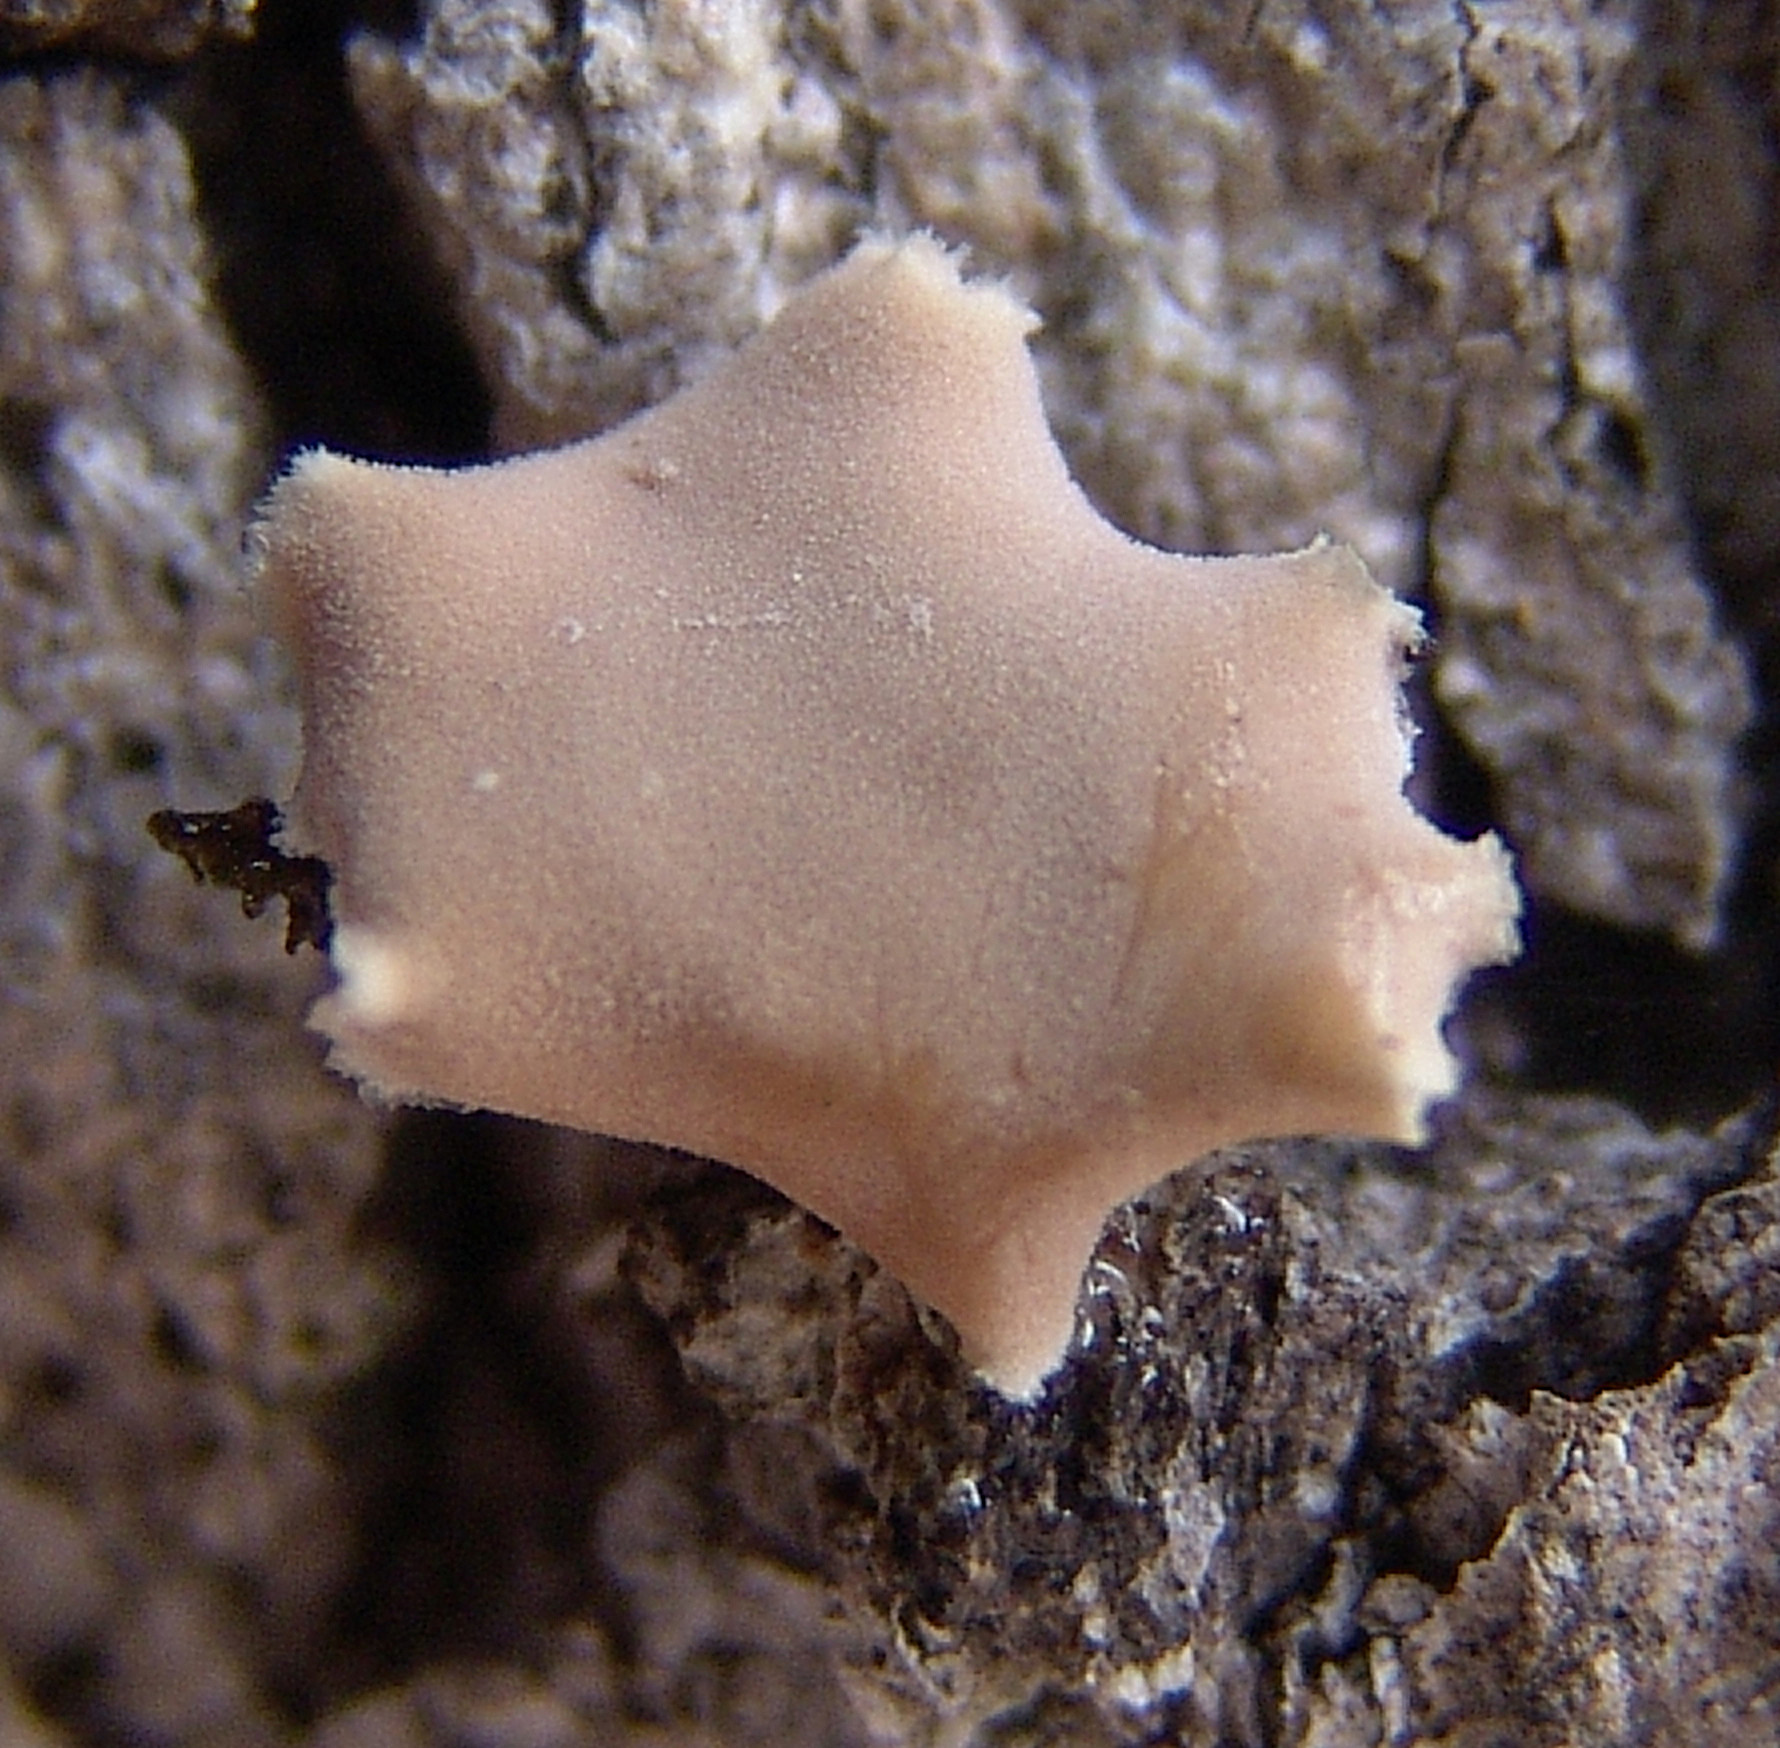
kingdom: Fungi
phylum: Basidiomycota
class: Agaricomycetes
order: Russulales
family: Stereaceae
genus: Acanthophysium
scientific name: Acanthophysium oakesii
